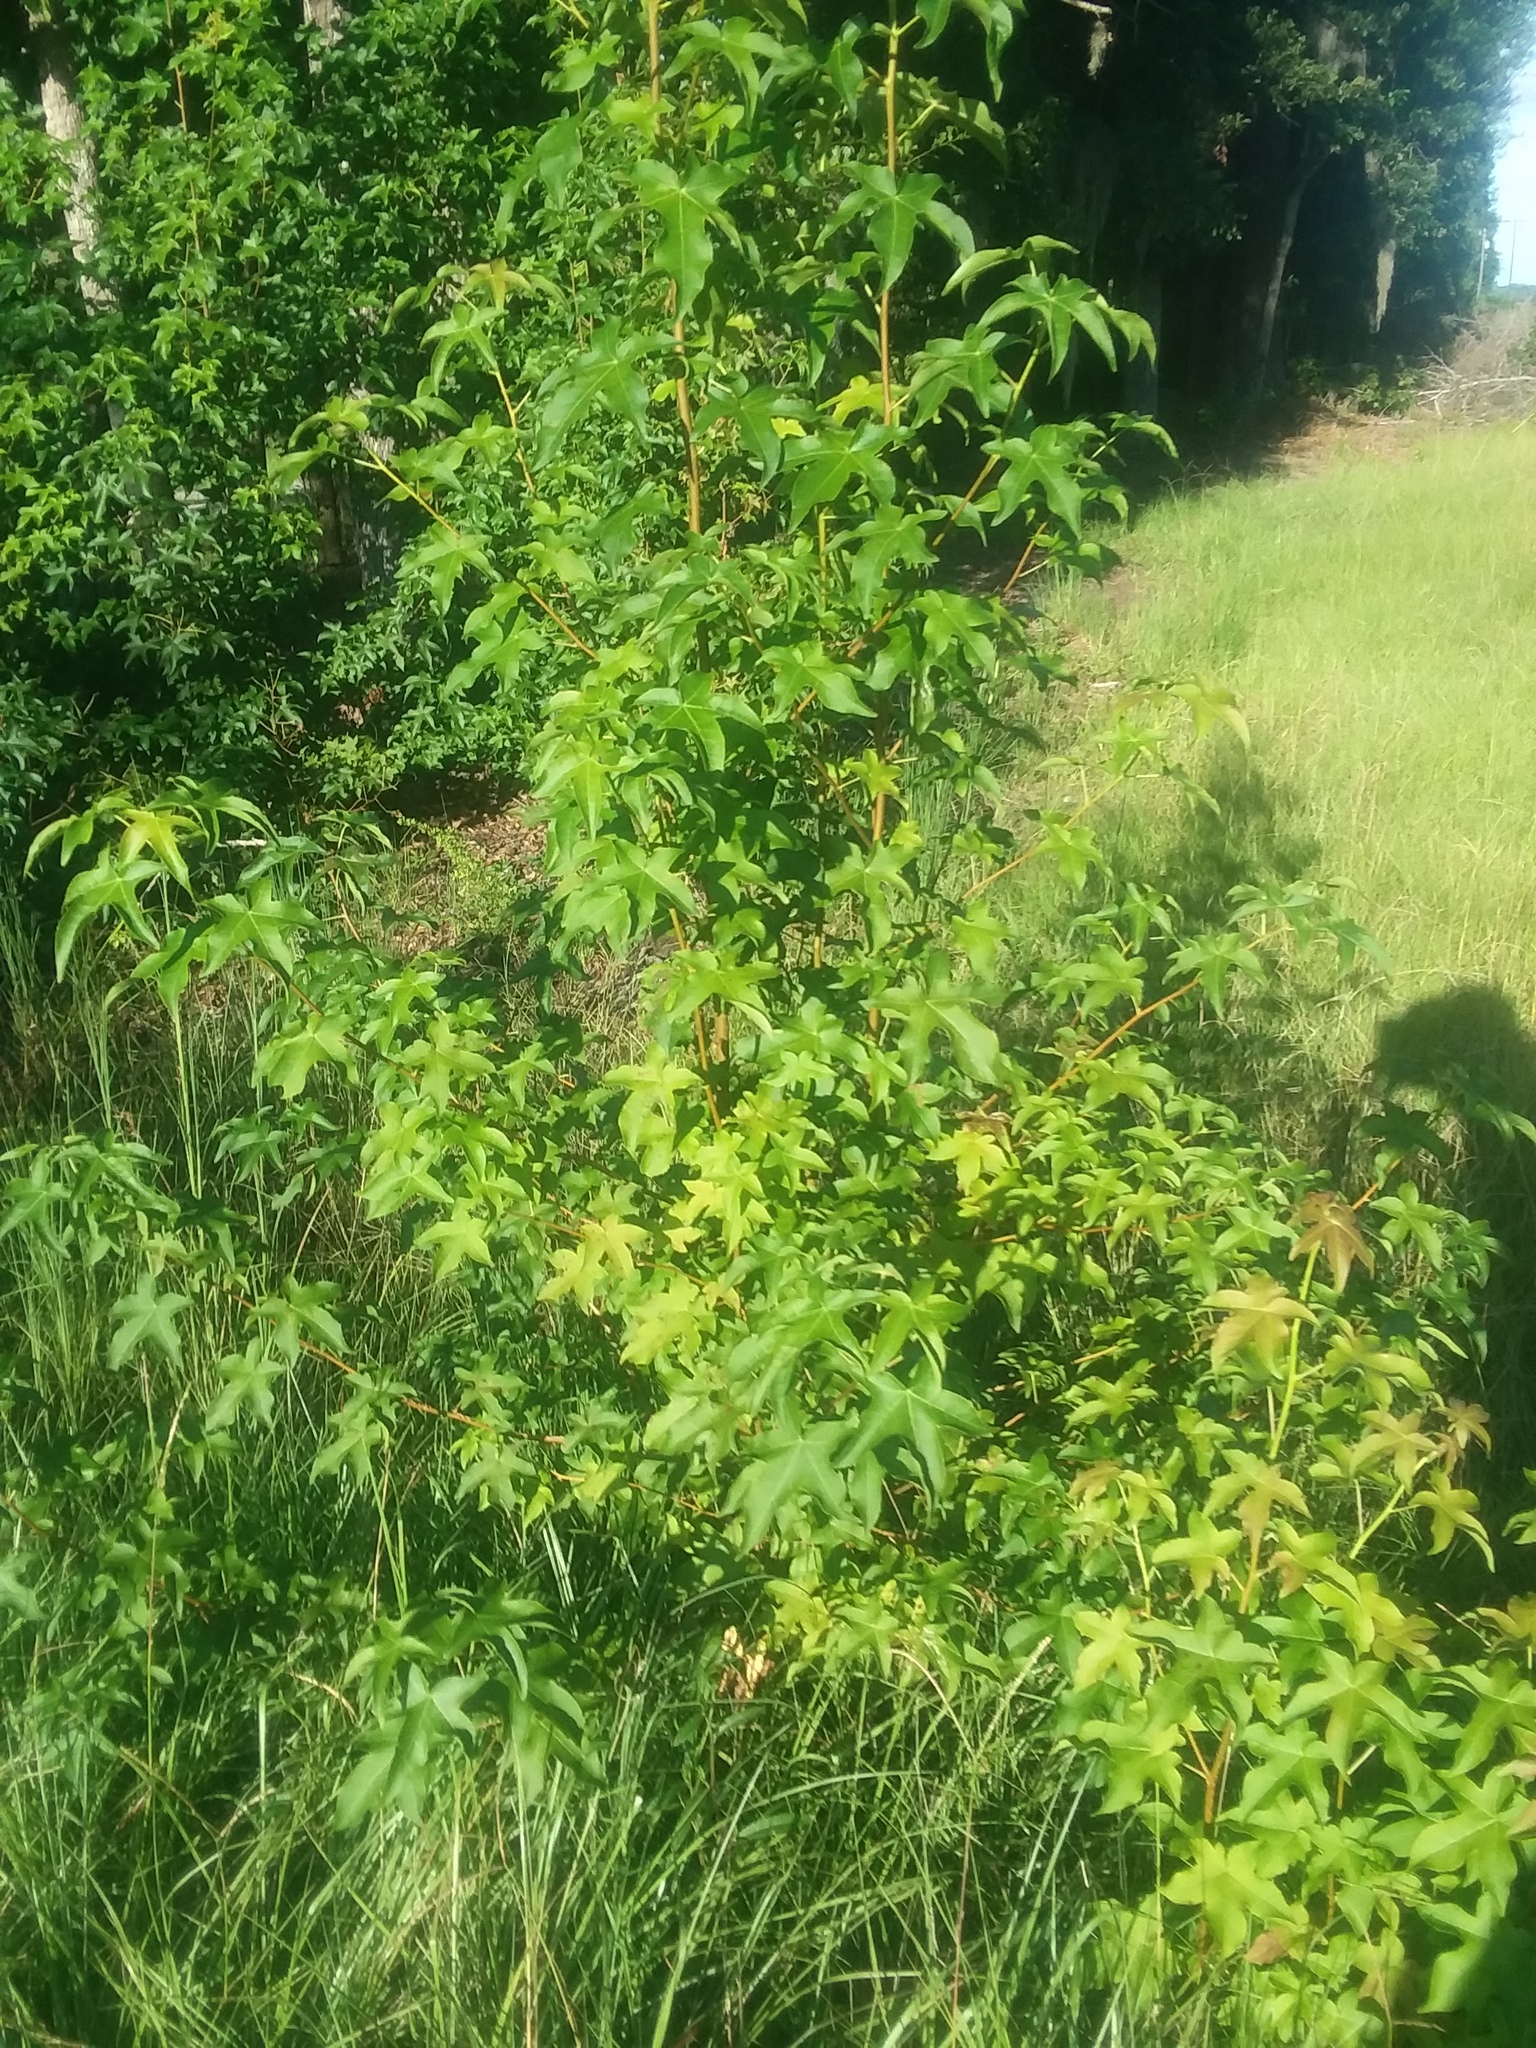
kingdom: Plantae
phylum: Tracheophyta
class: Magnoliopsida
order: Saxifragales
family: Altingiaceae
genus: Liquidambar
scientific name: Liquidambar styraciflua
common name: Sweet gum
